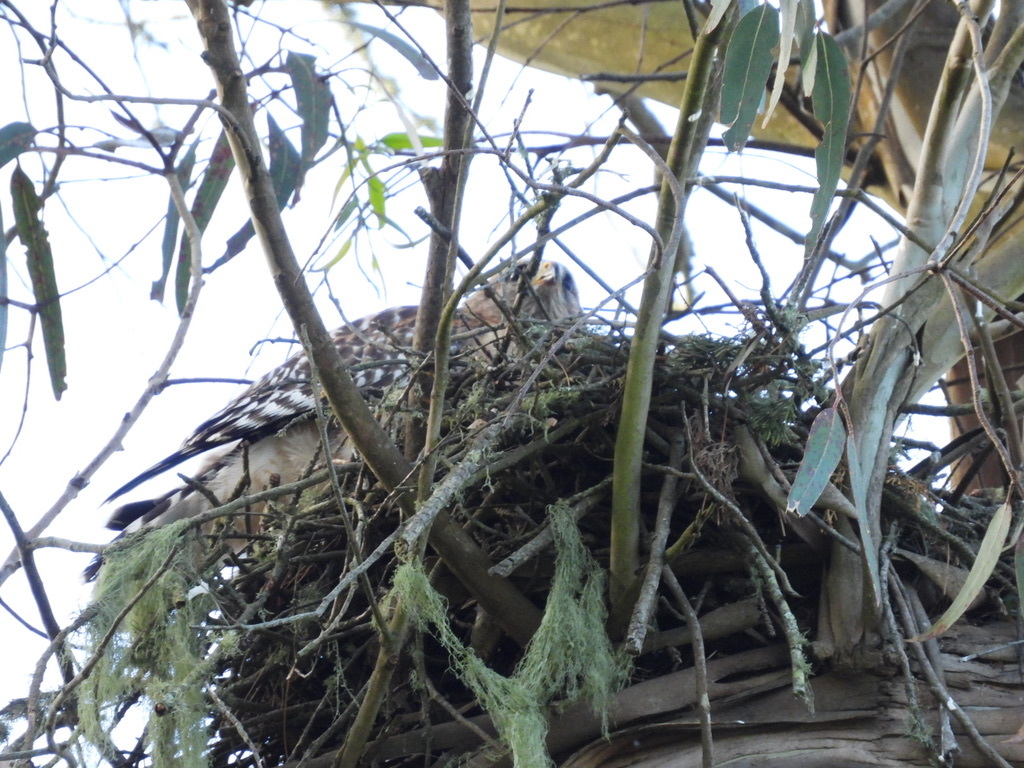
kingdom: Animalia
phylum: Chordata
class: Aves
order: Accipitriformes
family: Accipitridae
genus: Buteo
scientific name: Buteo lineatus
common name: Red-shouldered hawk
